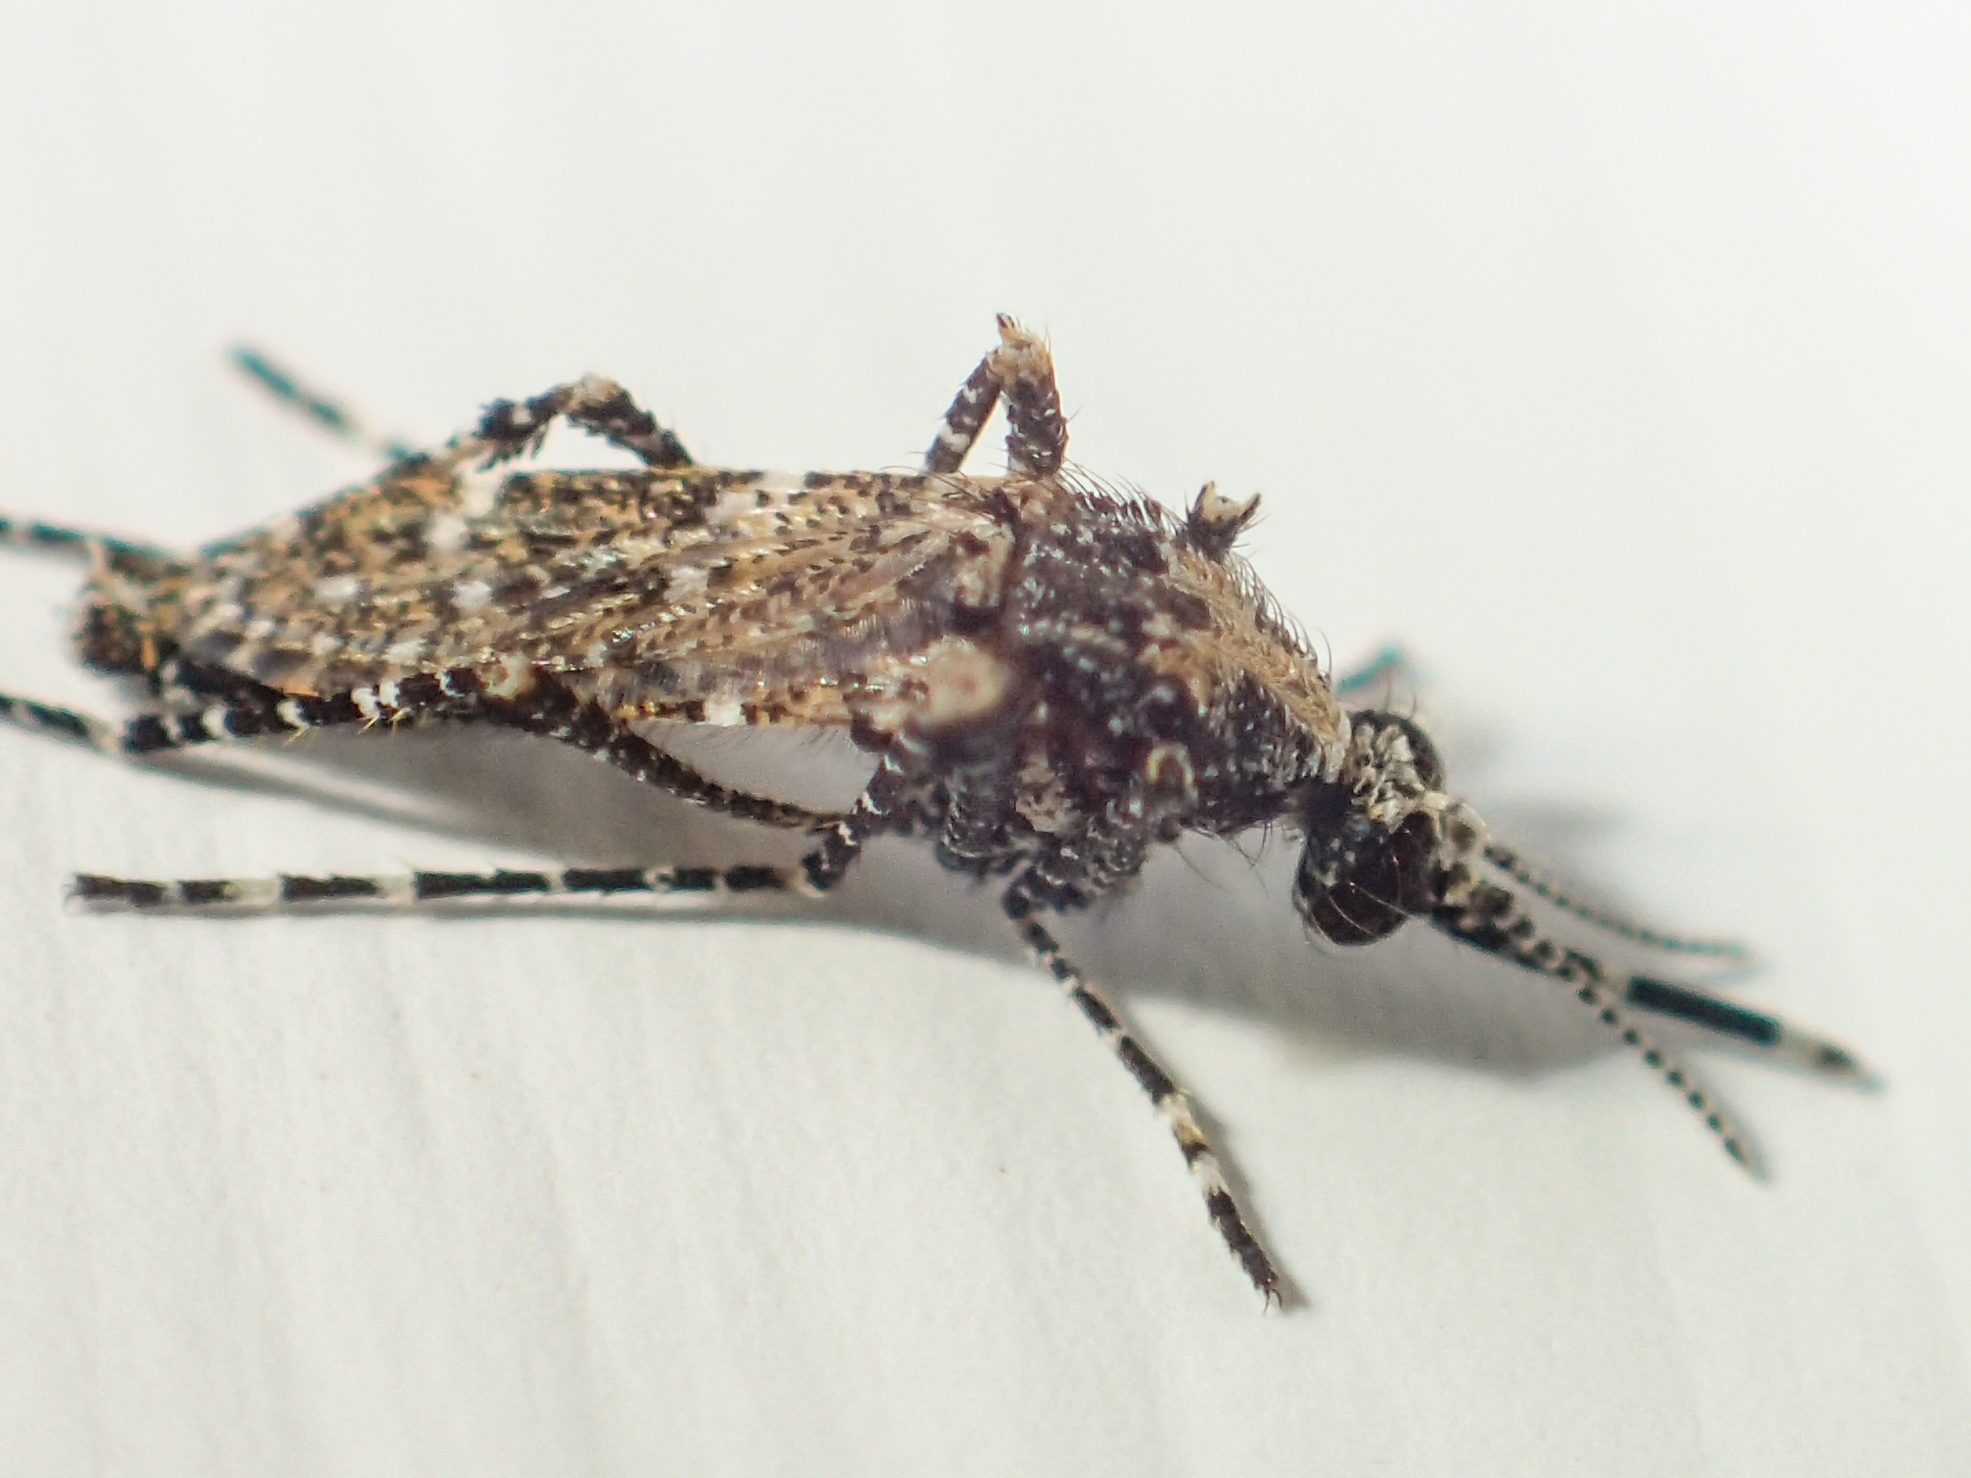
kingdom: Animalia
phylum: Arthropoda
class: Insecta
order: Diptera
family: Culicidae
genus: Aedeomyia
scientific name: Aedeomyia catasticta
